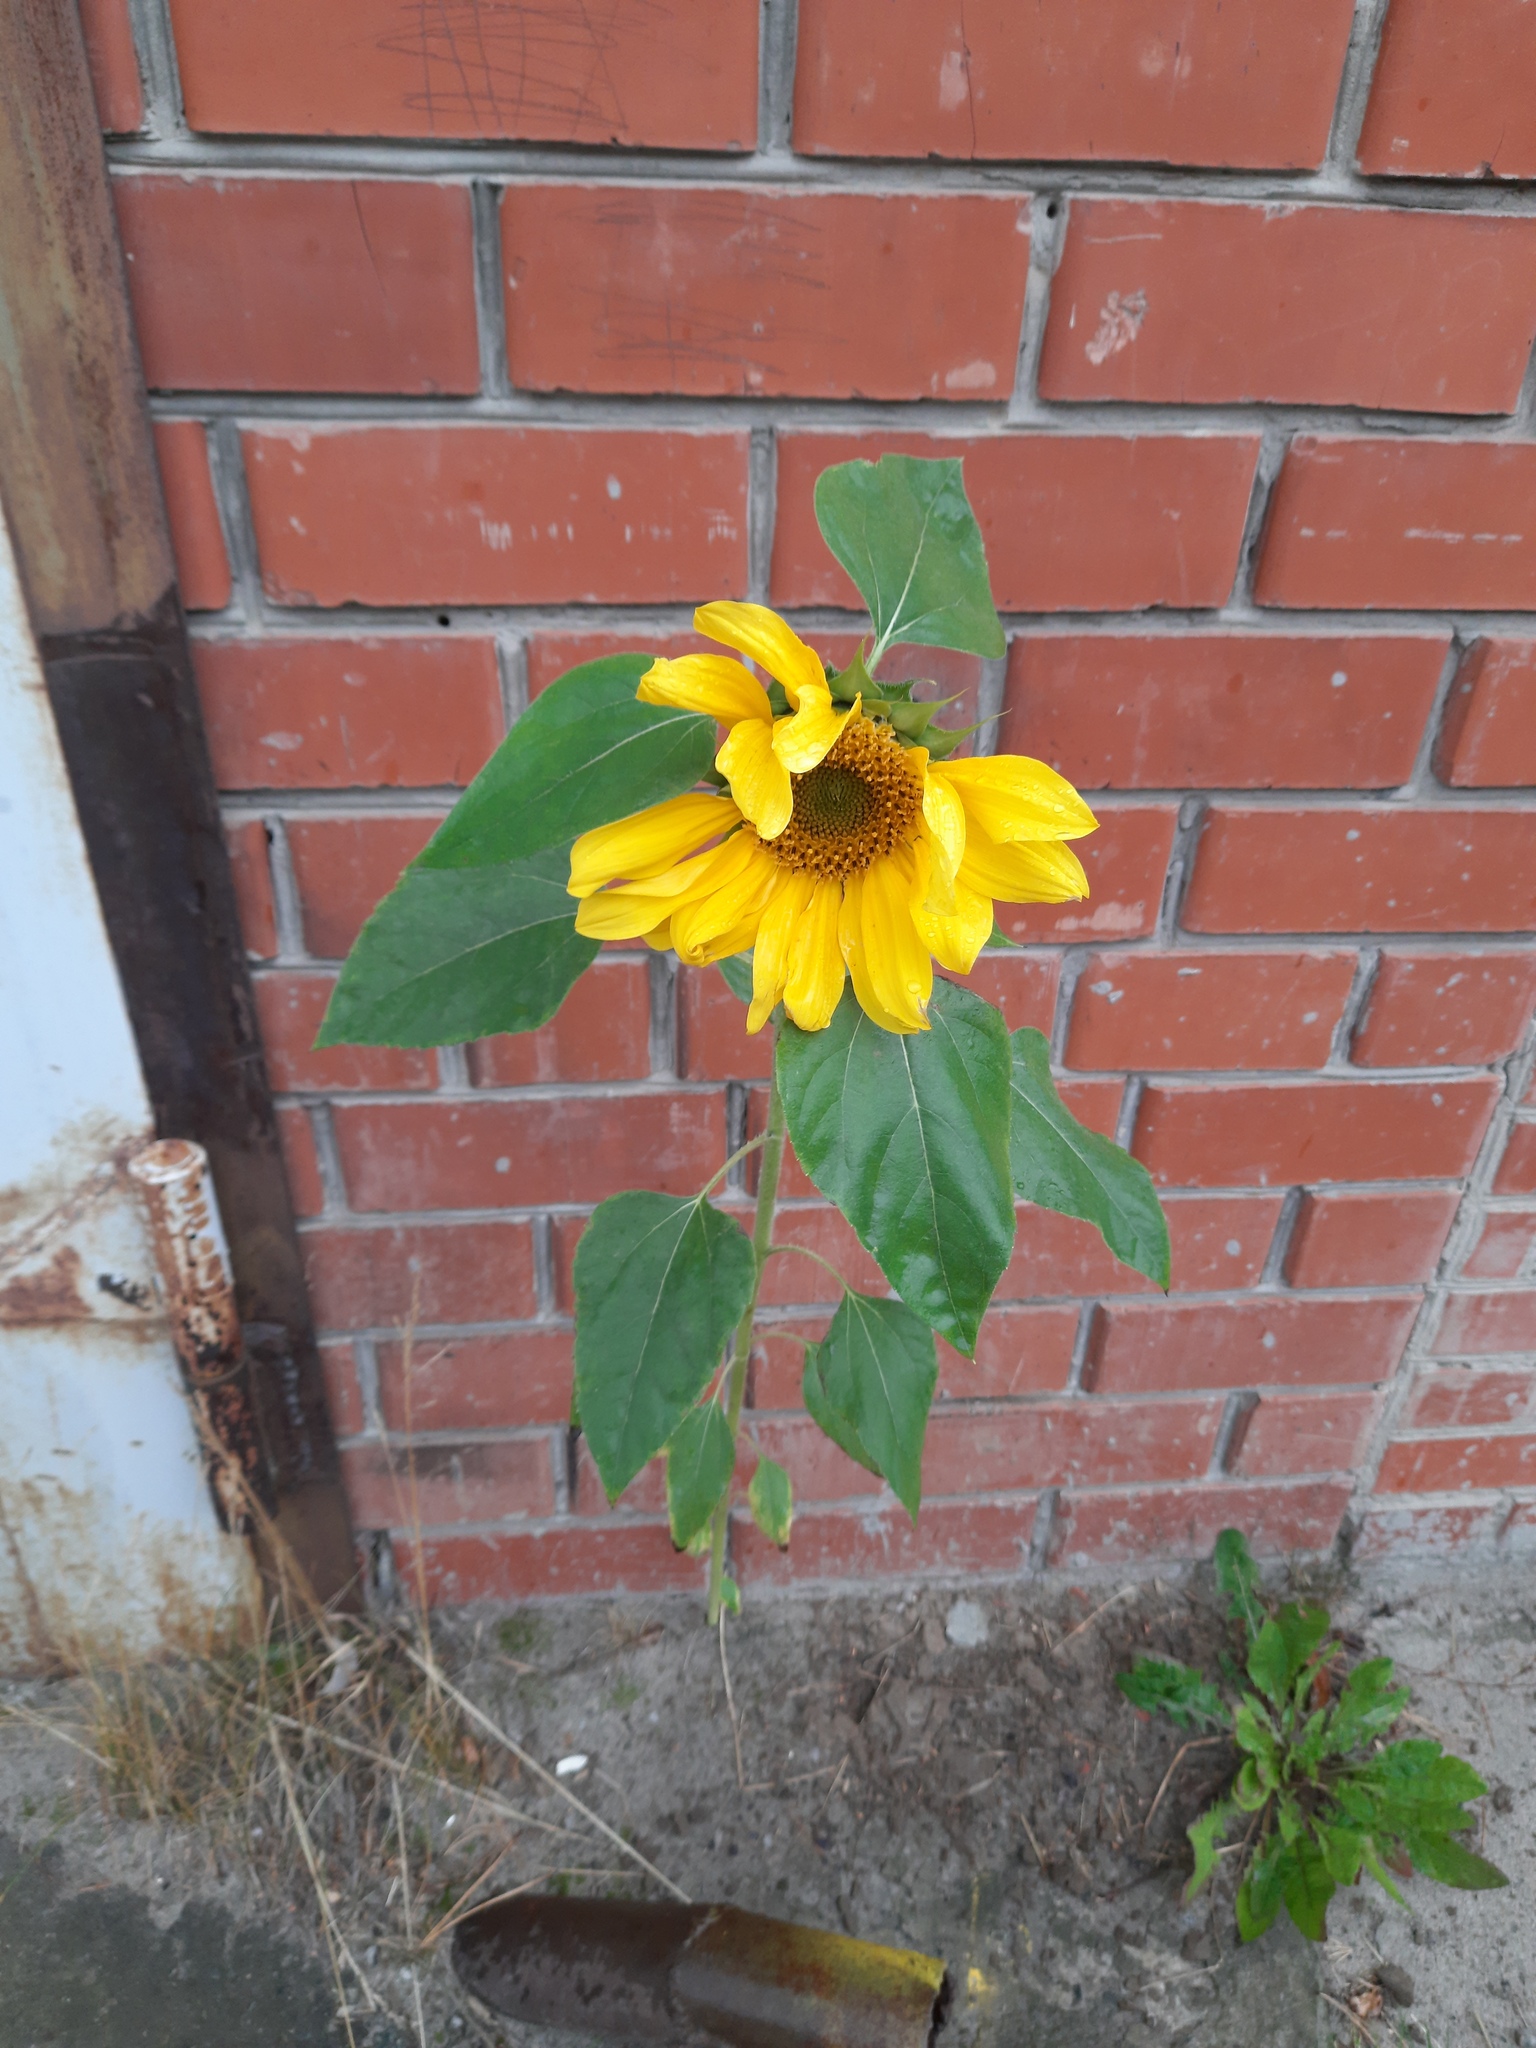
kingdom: Plantae
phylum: Tracheophyta
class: Magnoliopsida
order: Asterales
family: Asteraceae
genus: Helianthus
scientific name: Helianthus annuus
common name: Sunflower
